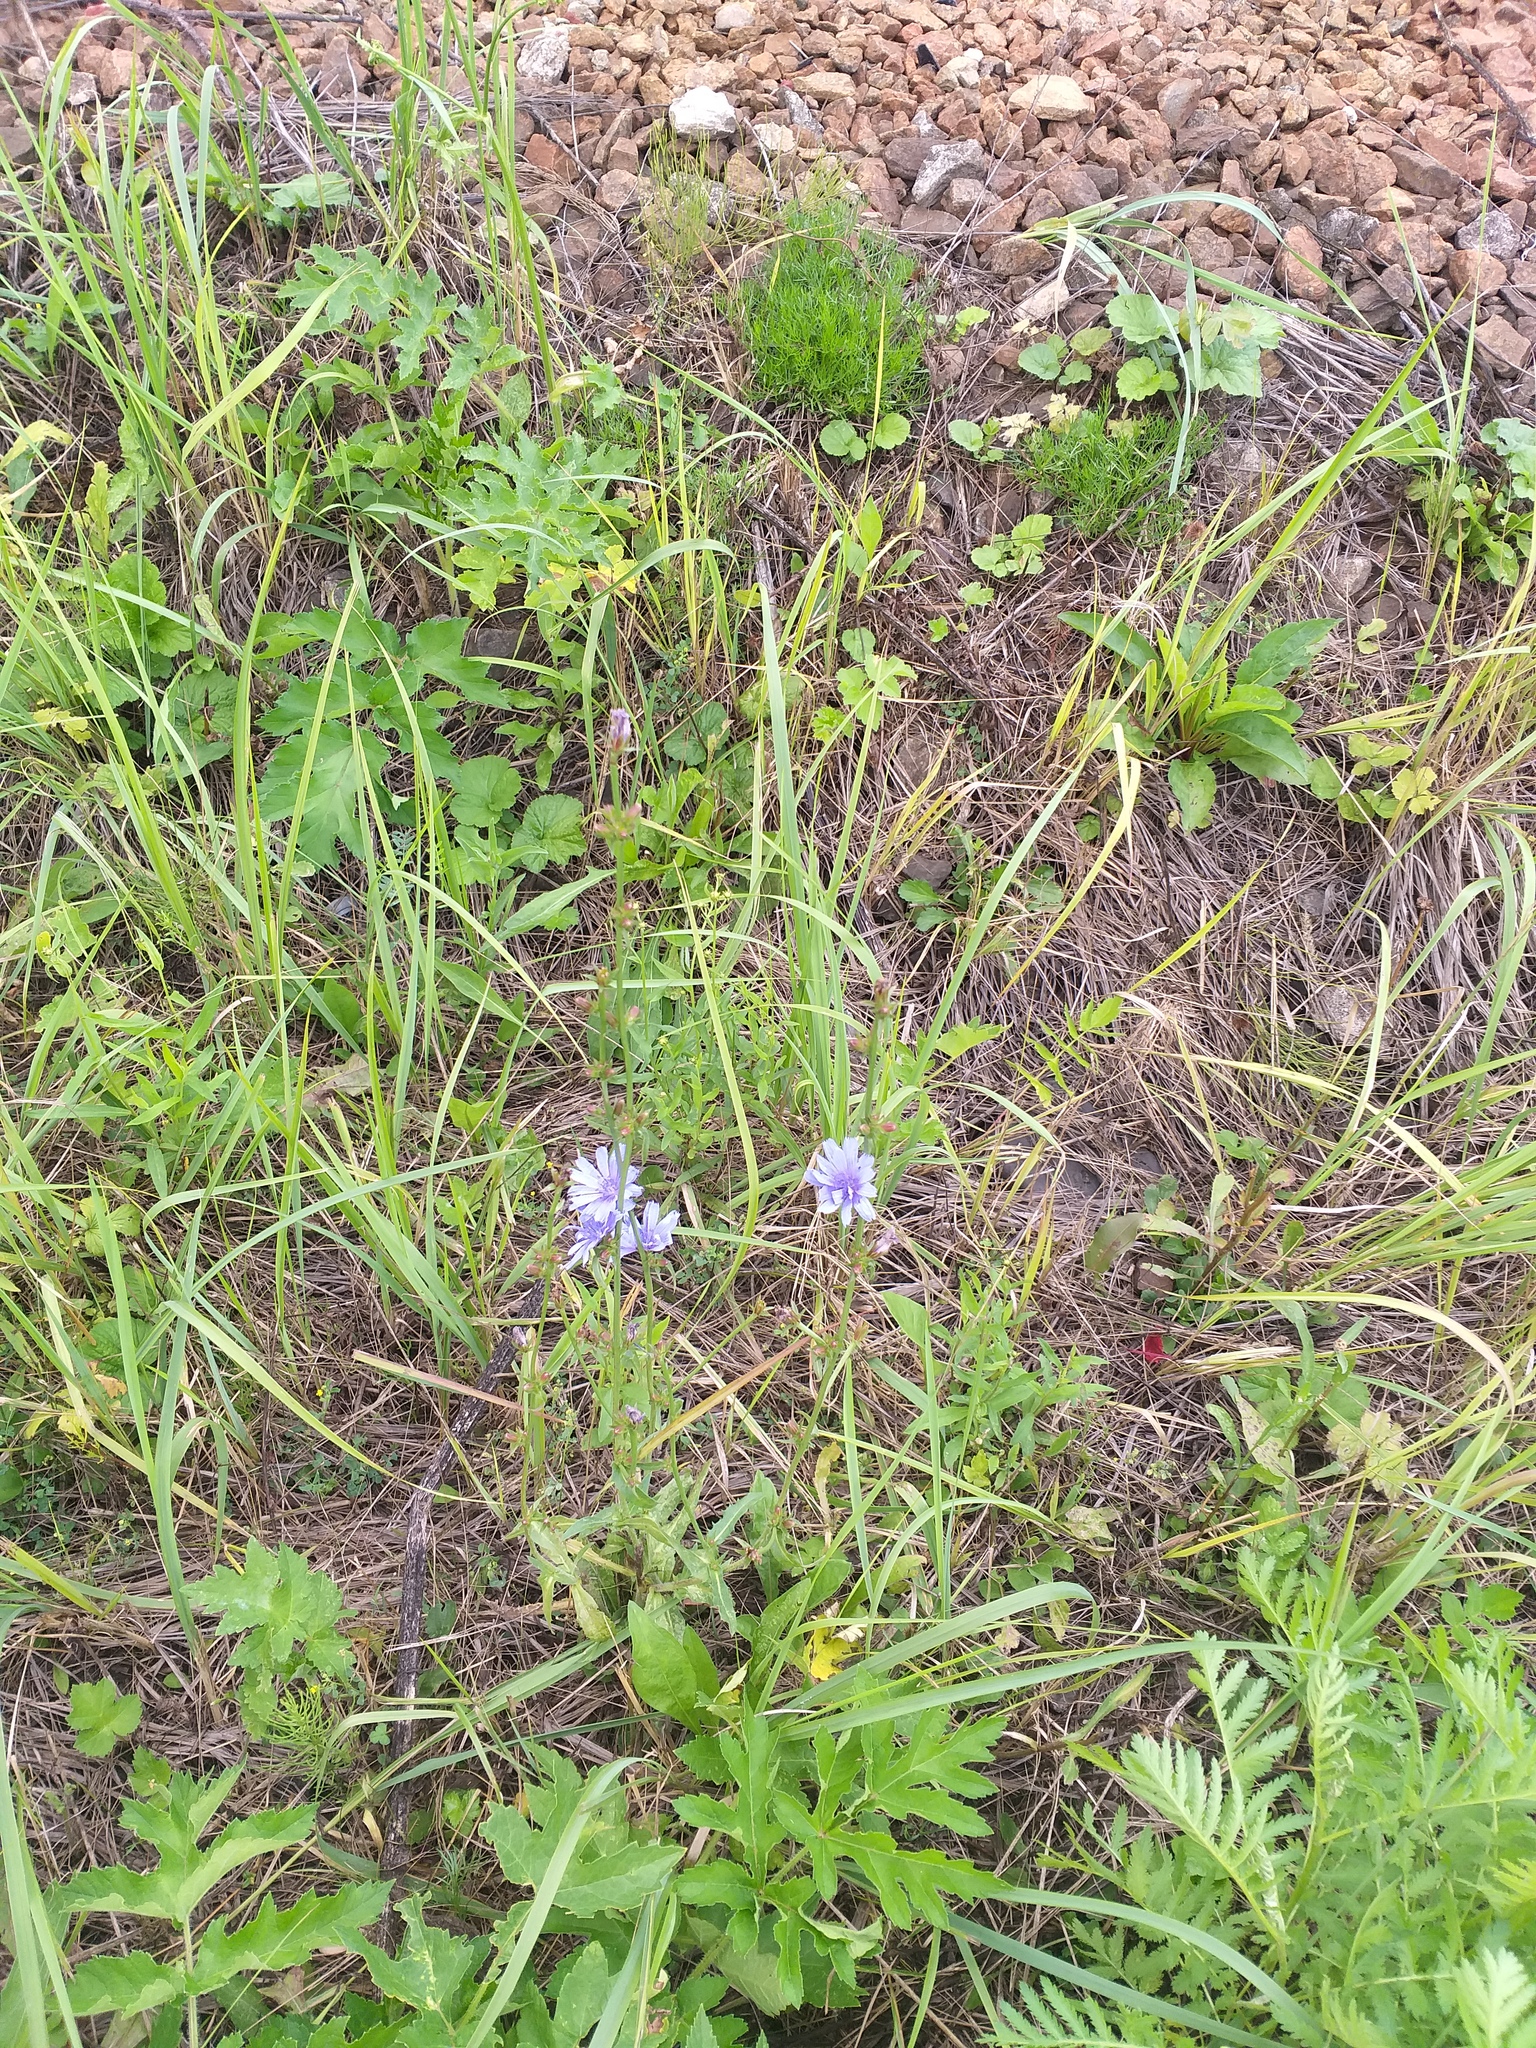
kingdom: Plantae
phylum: Tracheophyta
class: Magnoliopsida
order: Asterales
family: Asteraceae
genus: Cichorium
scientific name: Cichorium intybus
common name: Chicory
